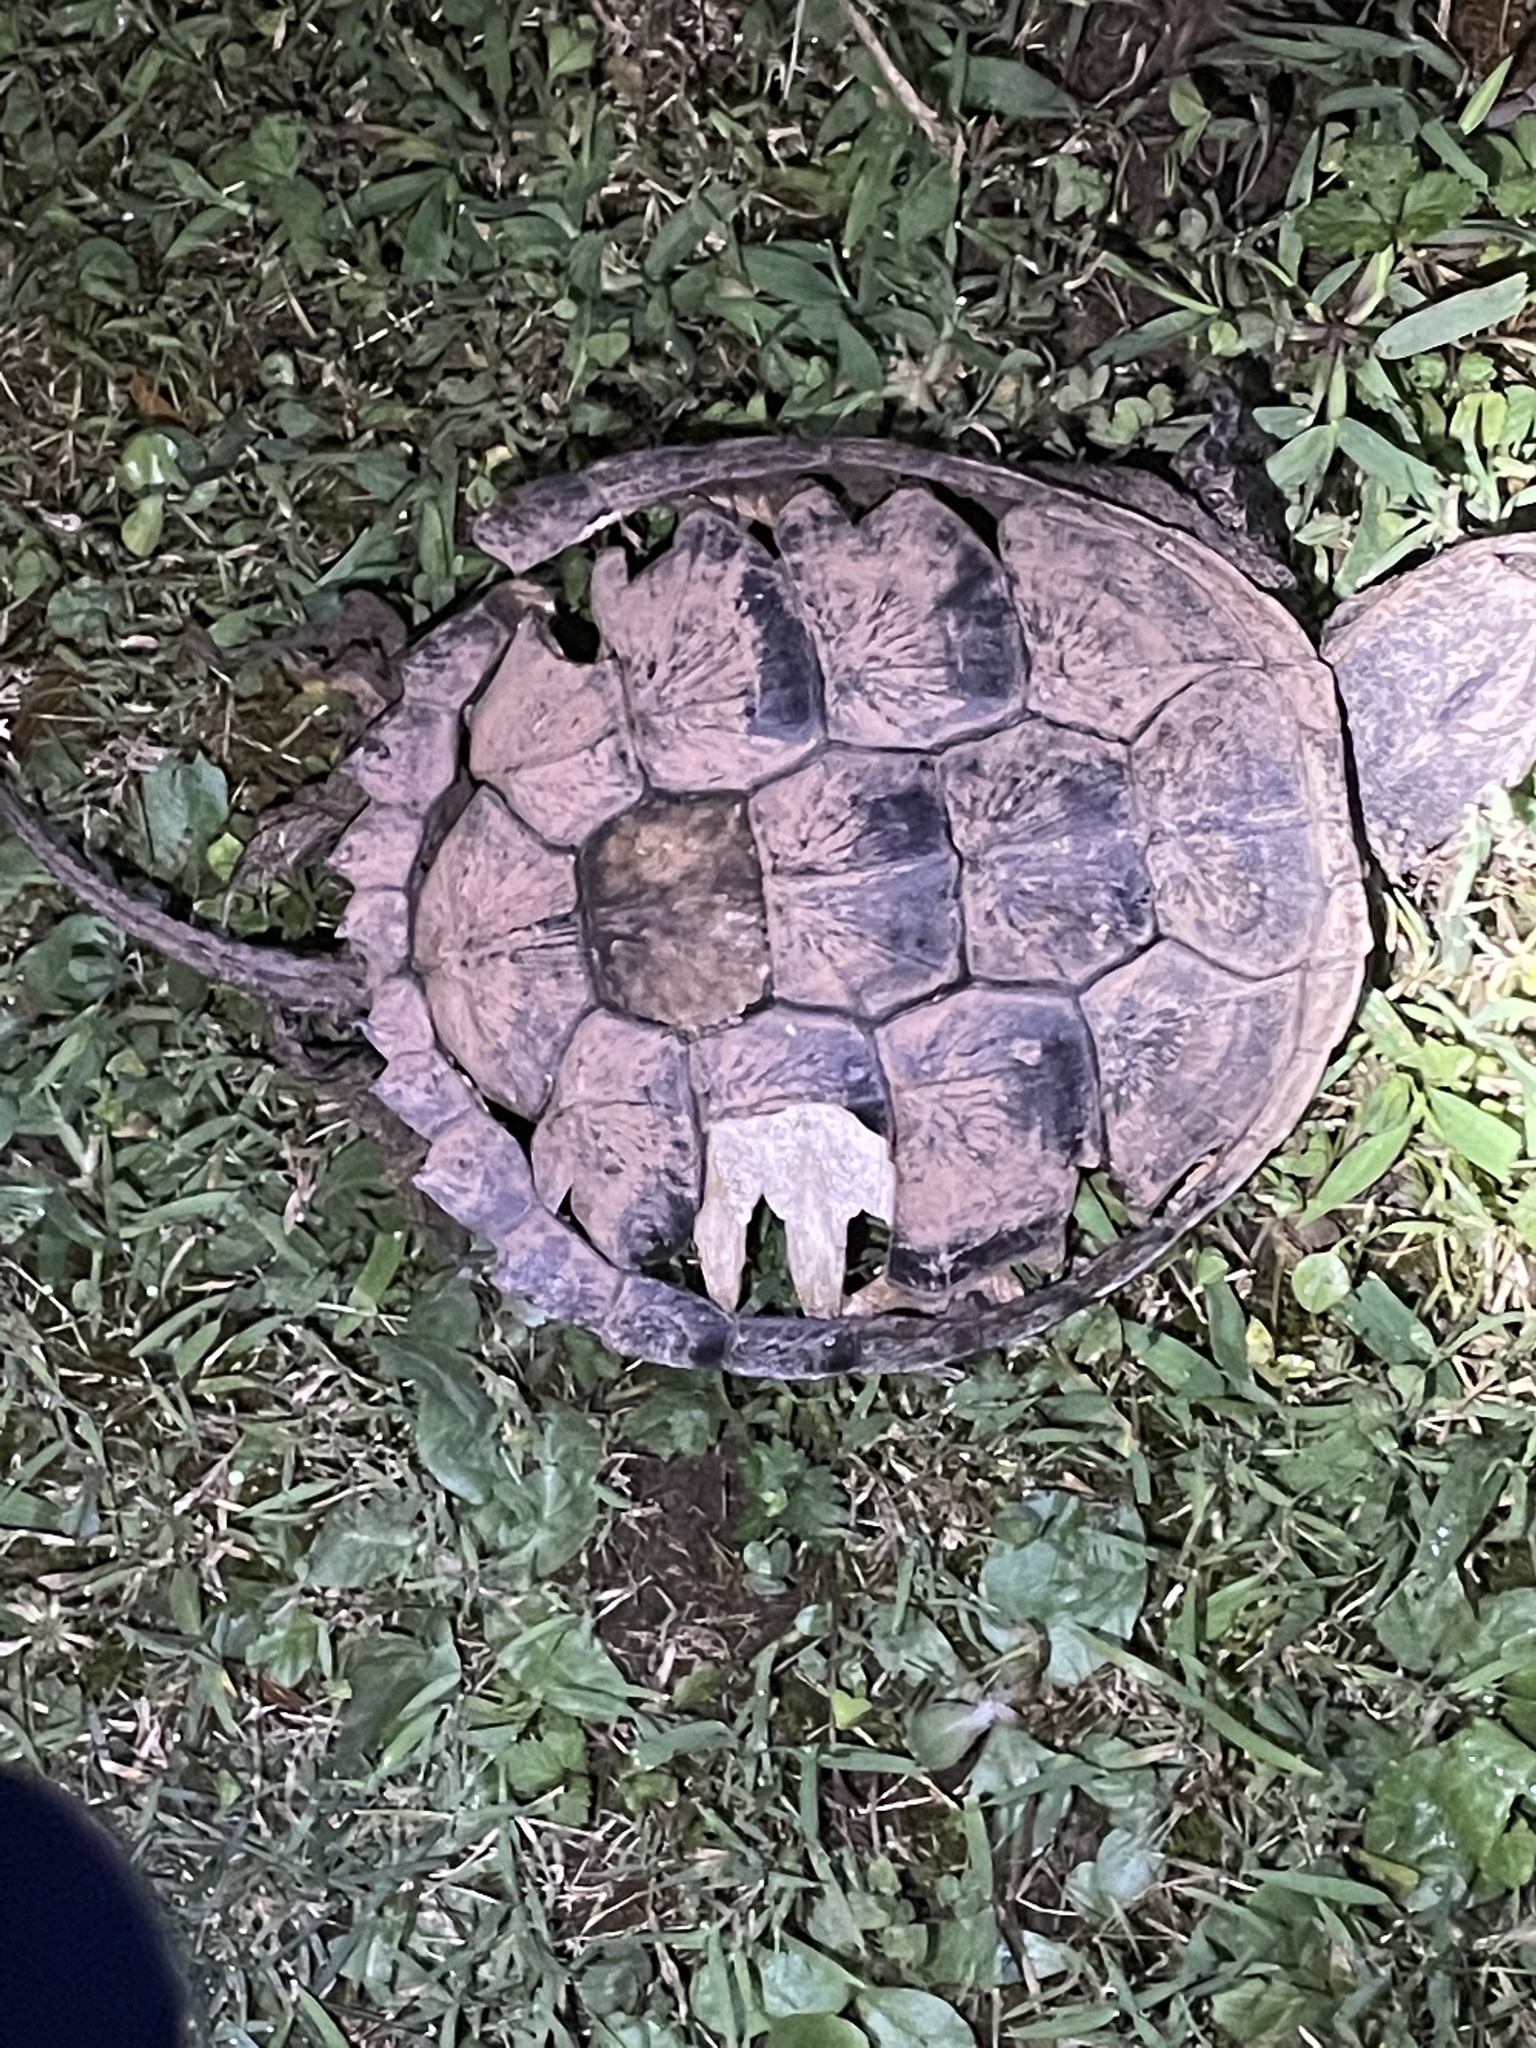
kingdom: Animalia
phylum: Chordata
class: Testudines
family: Chelydridae
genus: Chelydra
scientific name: Chelydra serpentina
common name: Common snapping turtle
